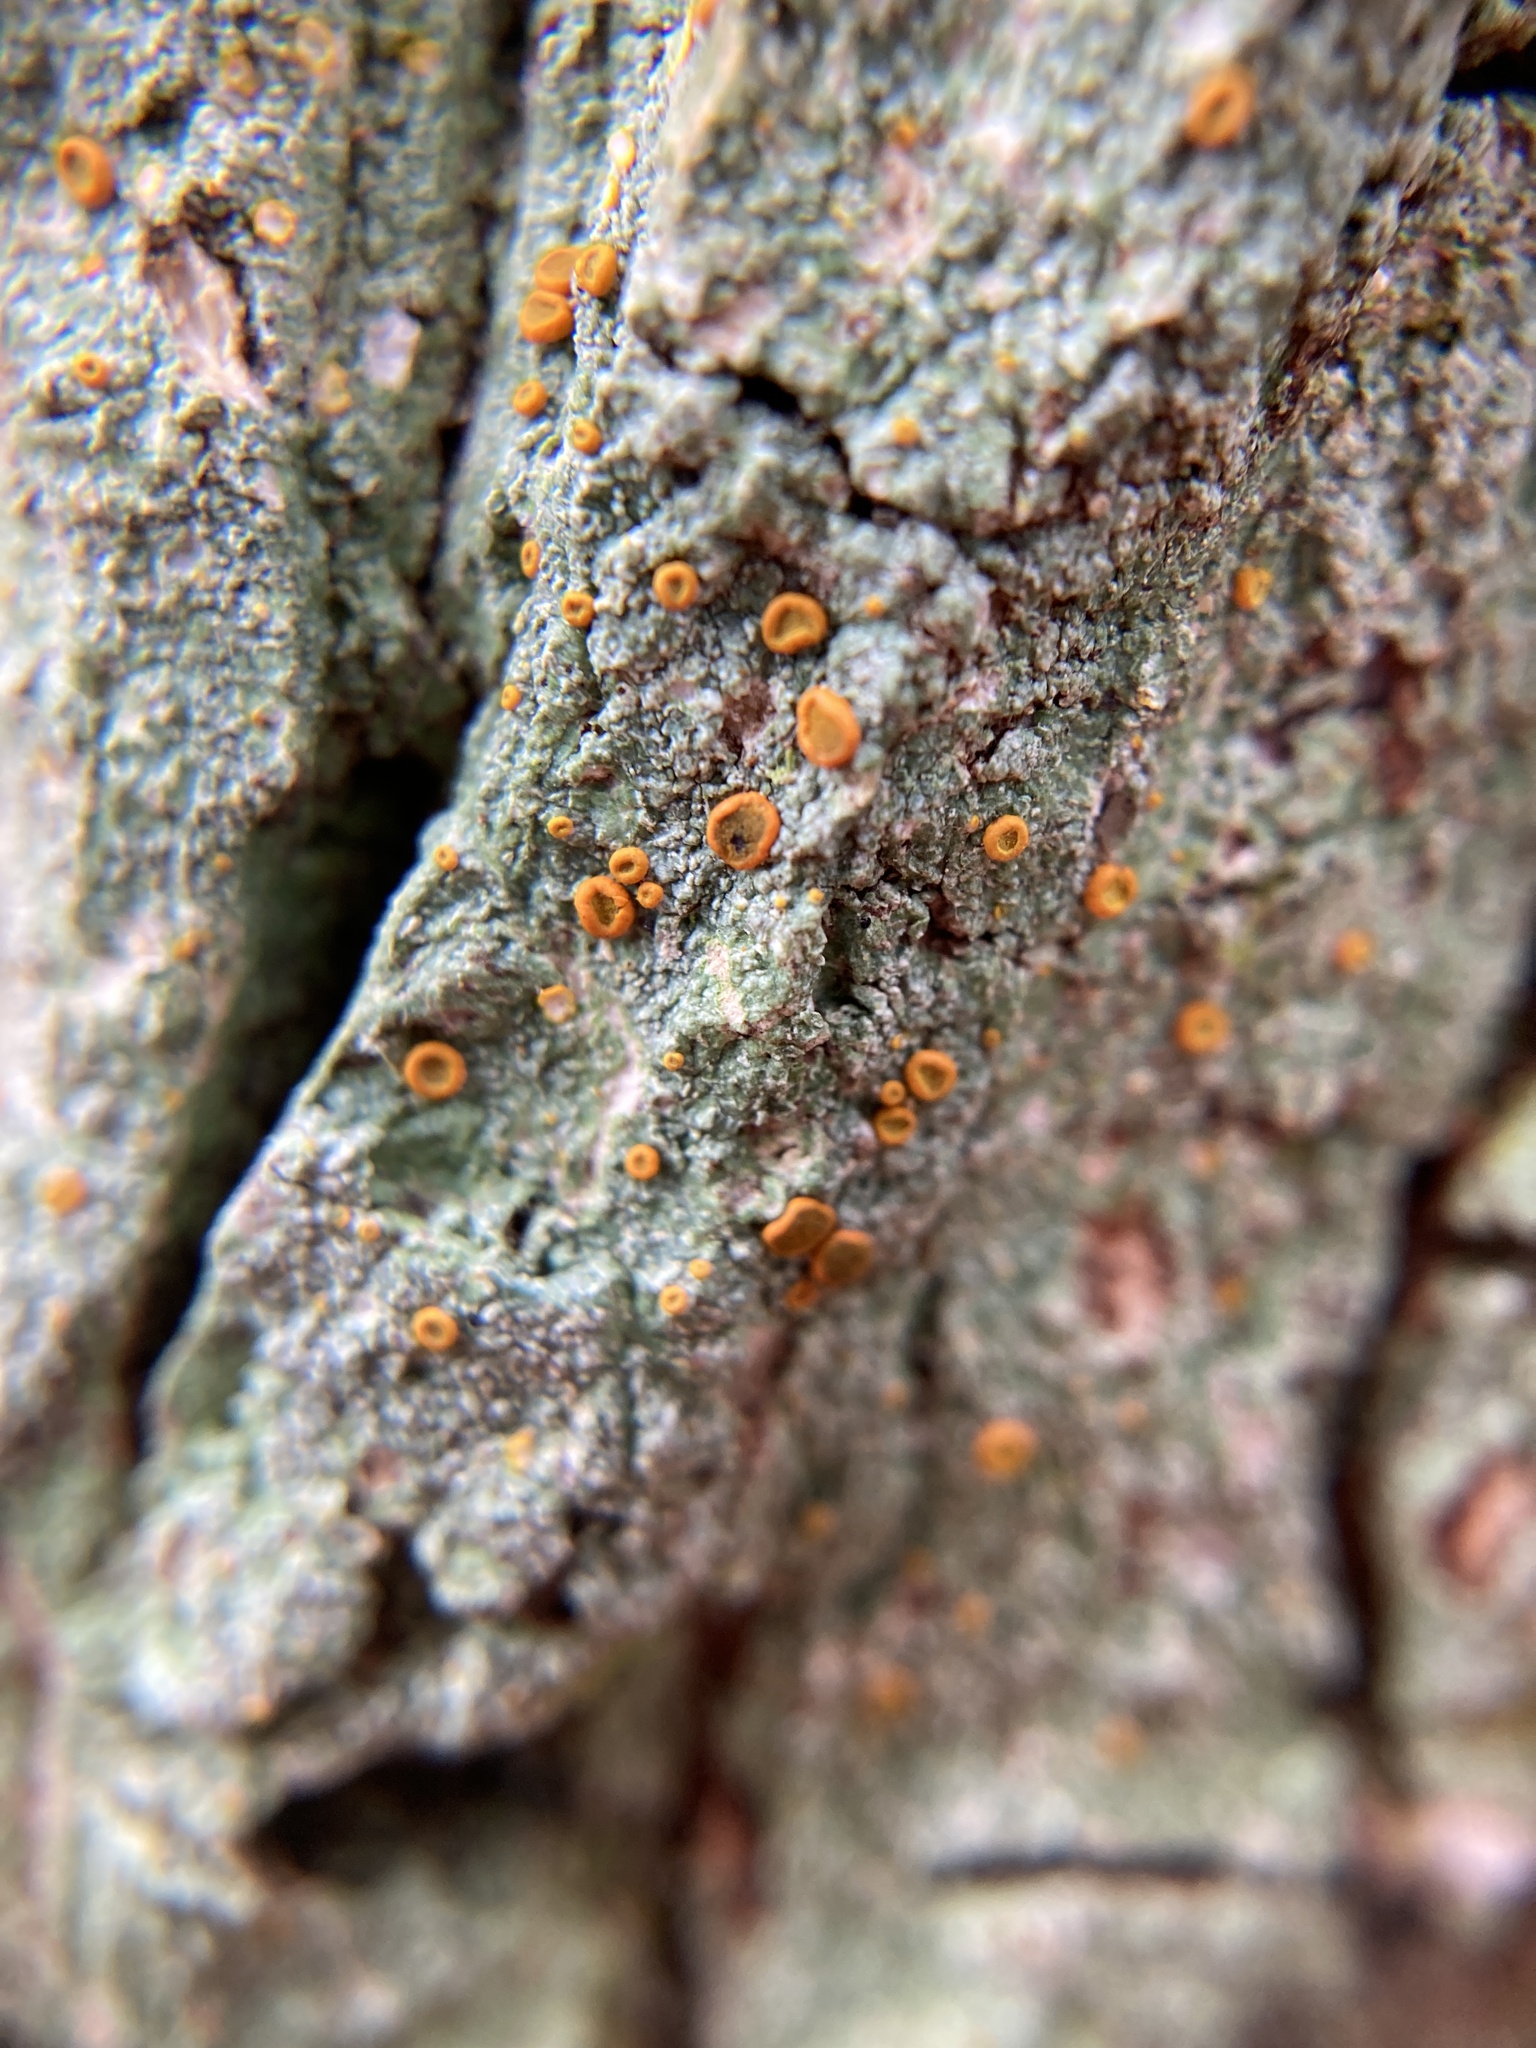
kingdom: Fungi
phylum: Ascomycota
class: Lecanoromycetes
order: Teloschistales
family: Brigantiaeaceae
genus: Brigantiaea
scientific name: Brigantiaea leucoxantha
